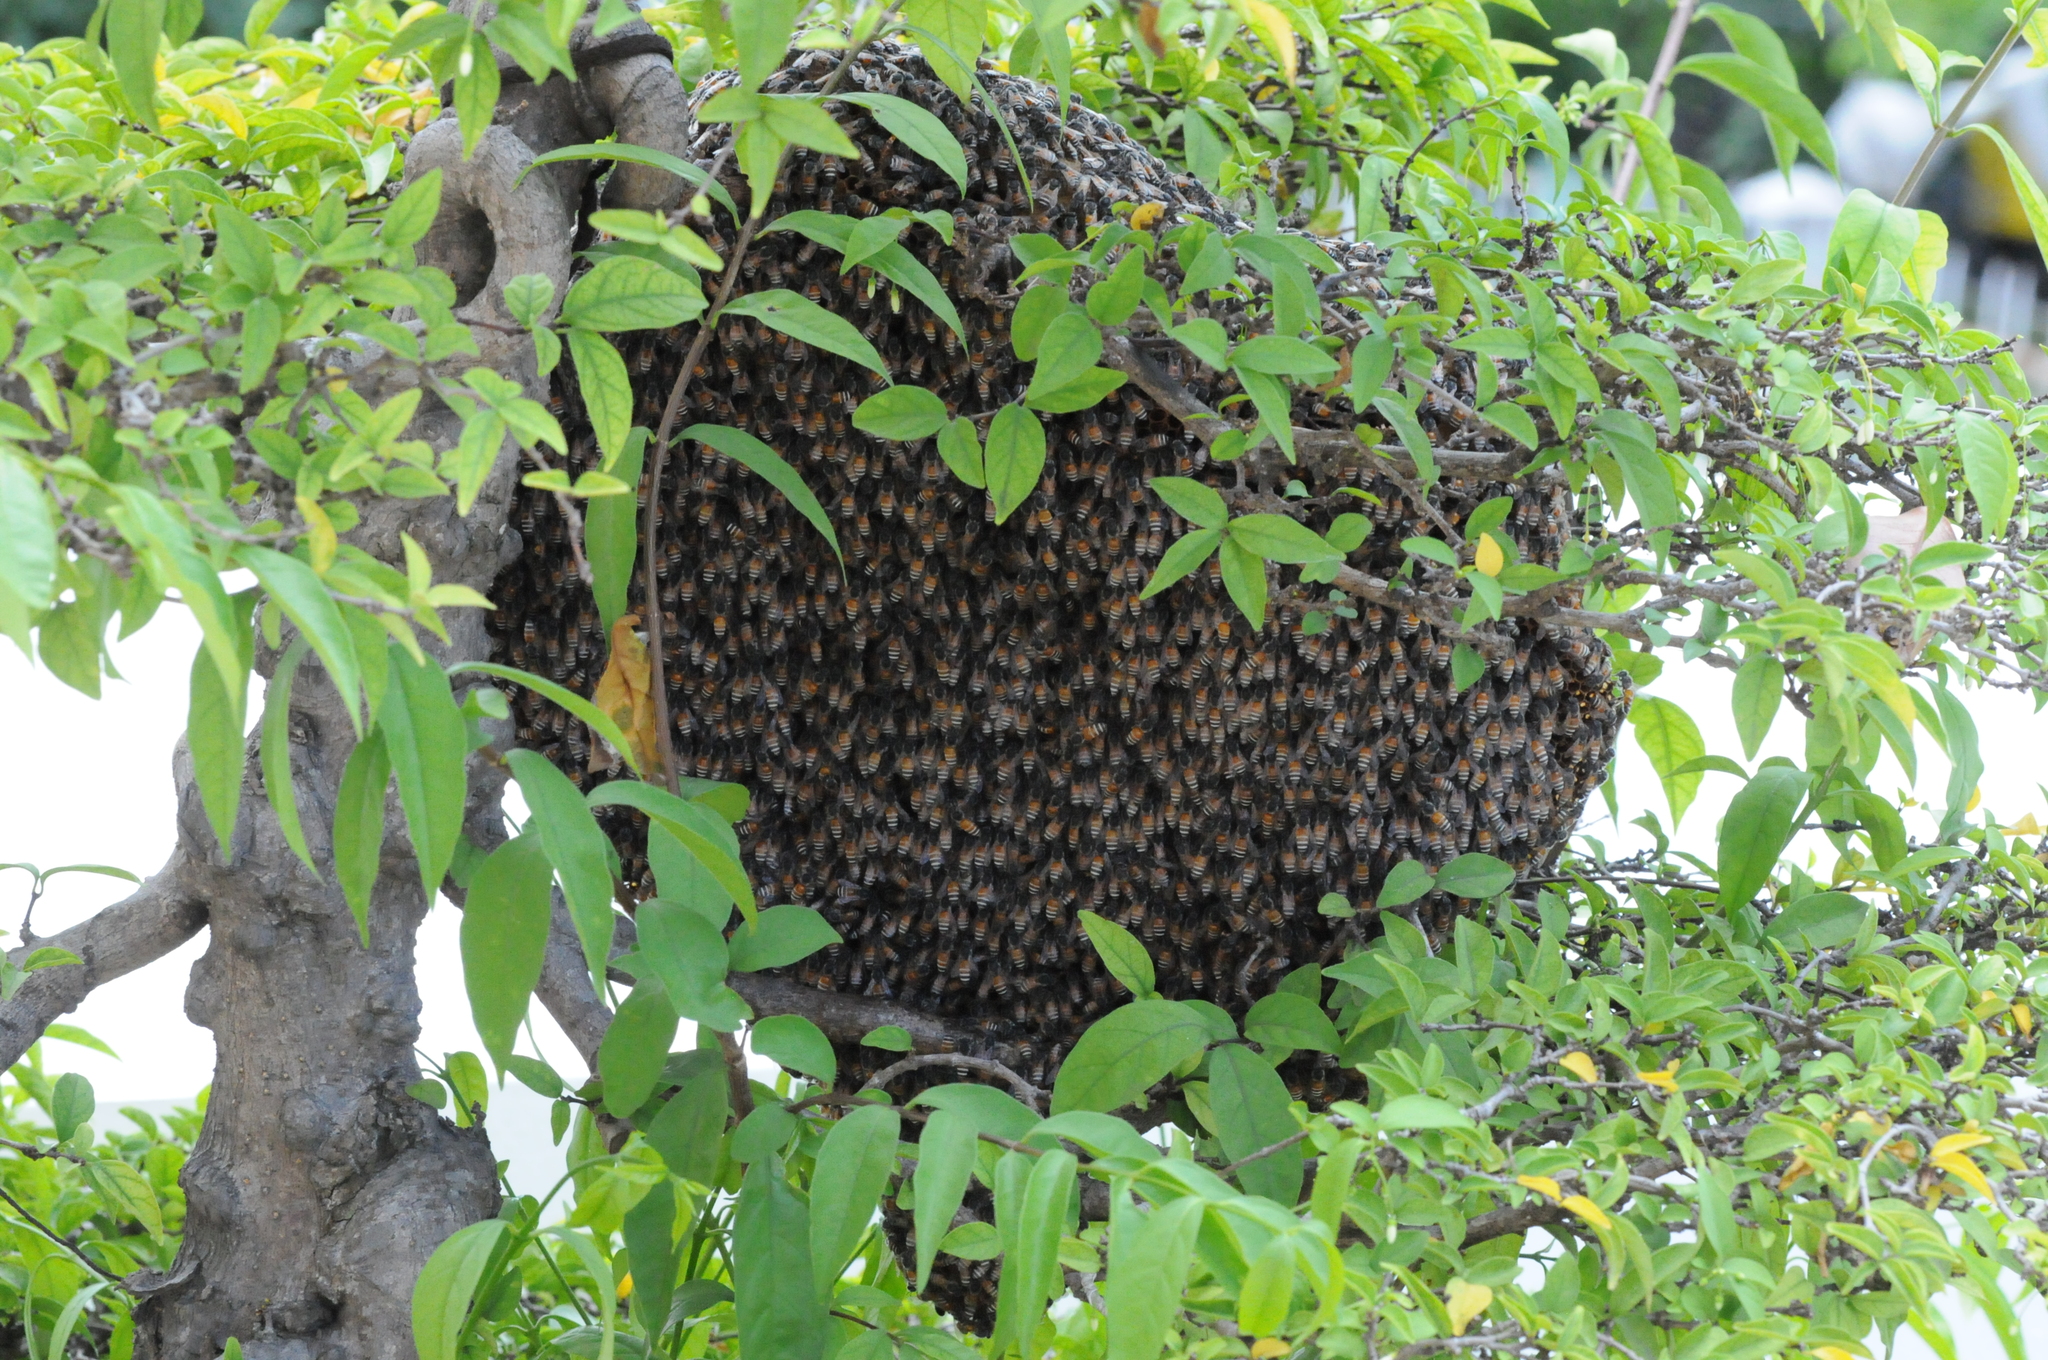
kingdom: Animalia
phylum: Arthropoda
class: Insecta
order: Hymenoptera
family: Apidae
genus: Apis
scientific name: Apis florea
